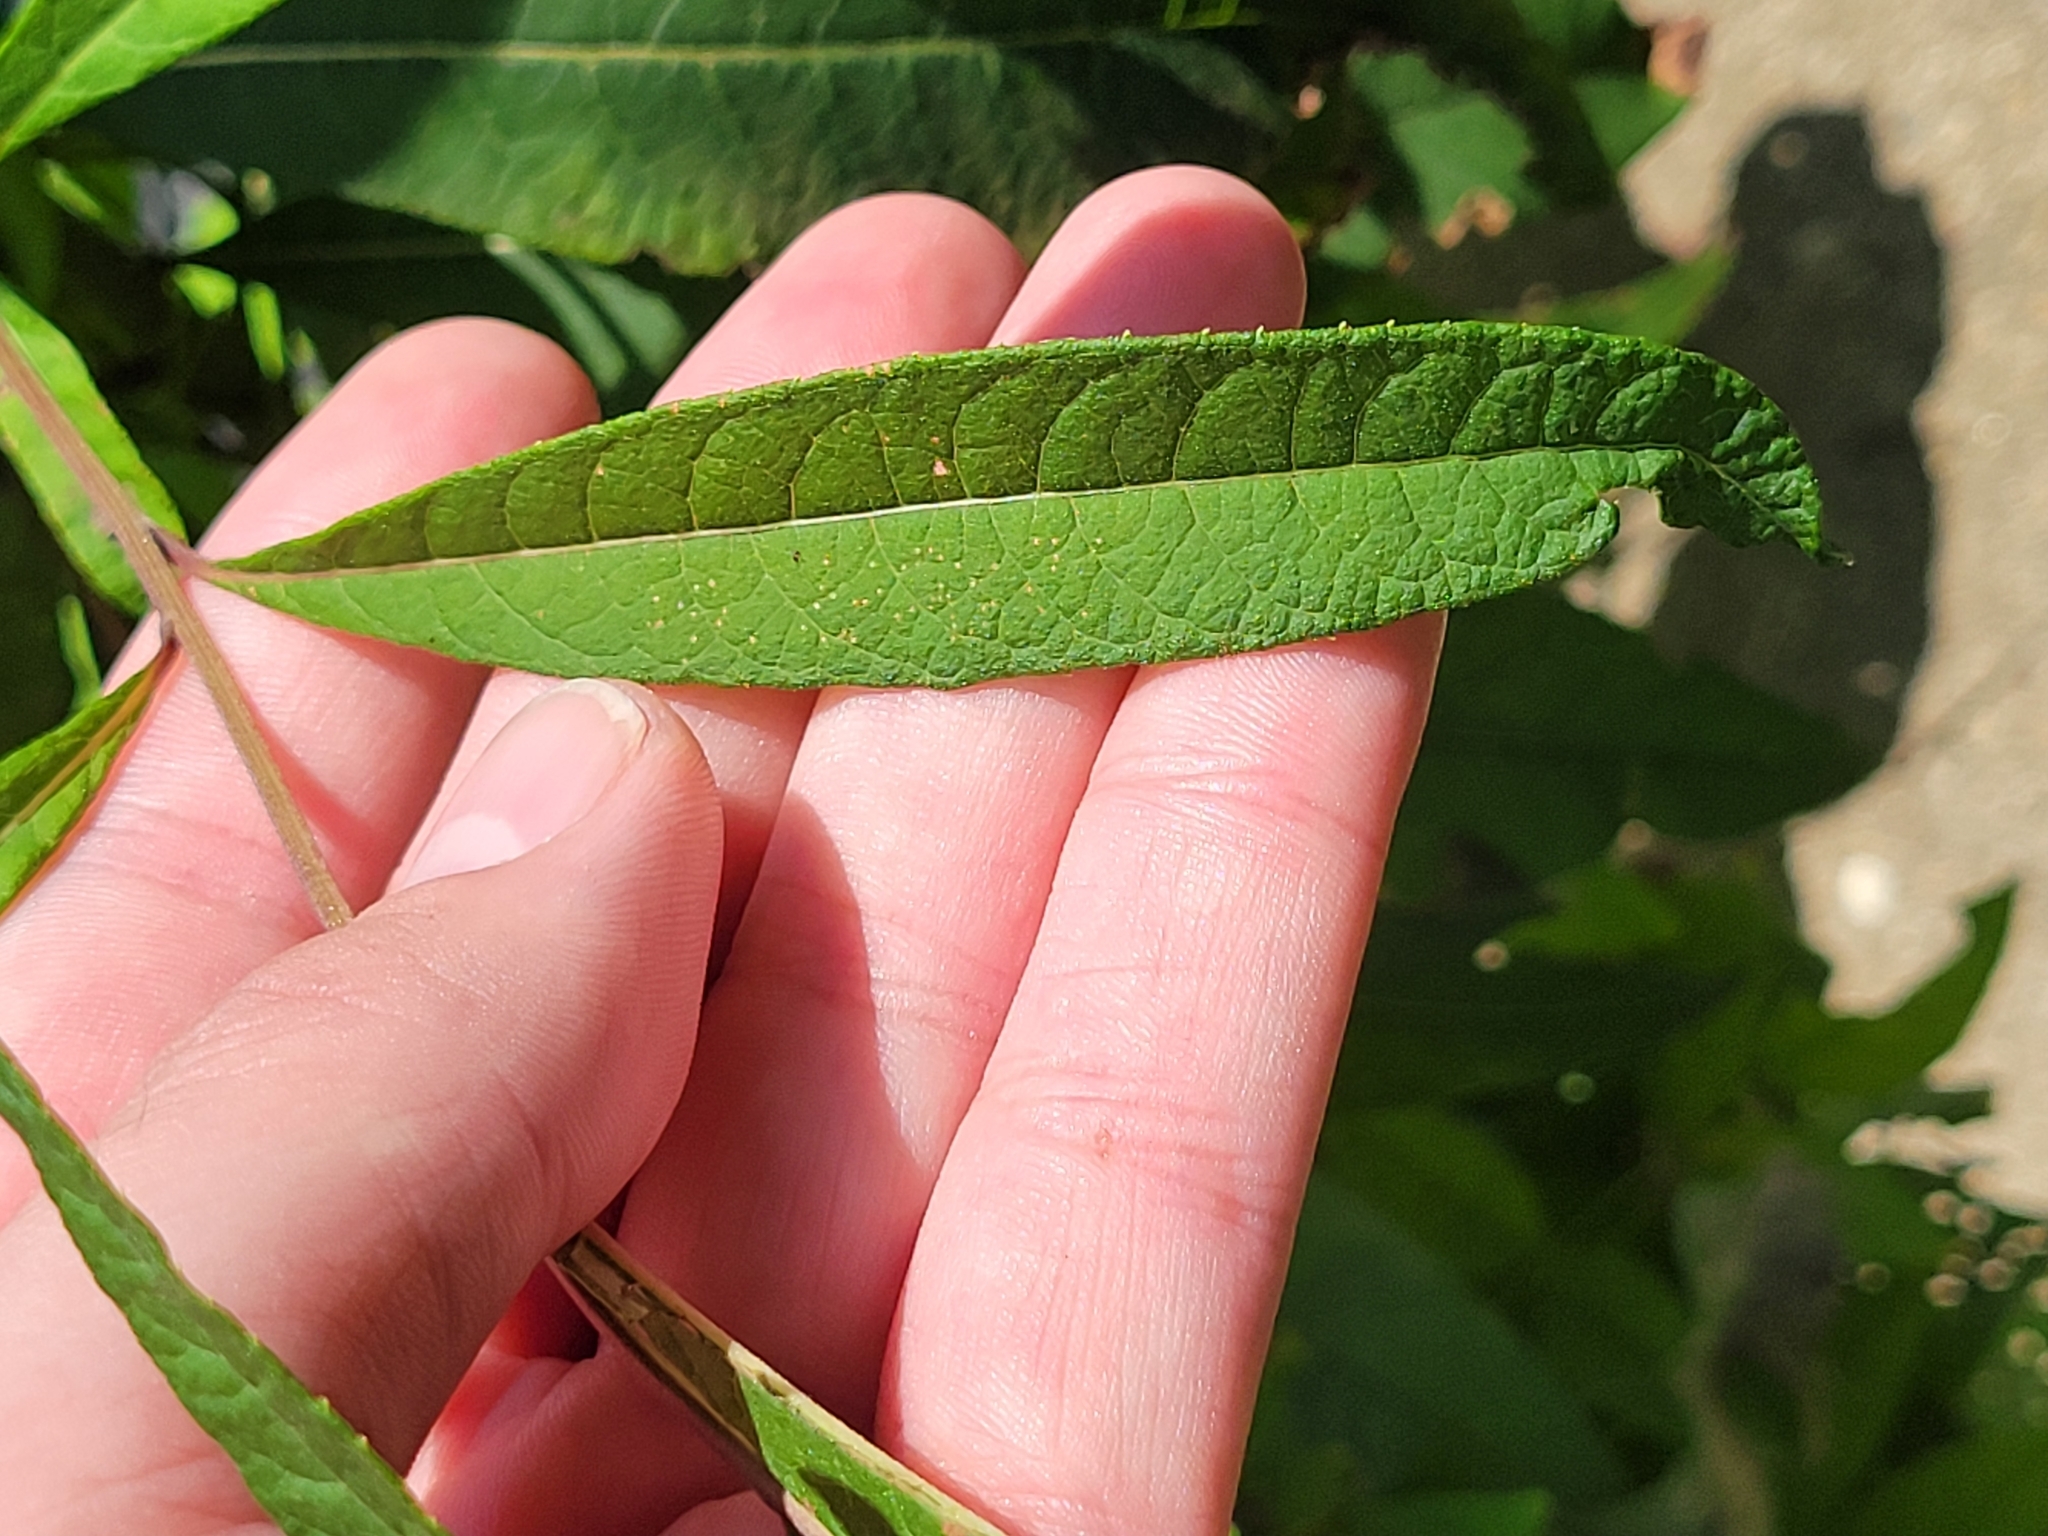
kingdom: Plantae
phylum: Tracheophyta
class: Magnoliopsida
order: Asterales
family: Asteraceae
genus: Vernonia
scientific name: Vernonia noveboracensis
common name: New york ironweed
